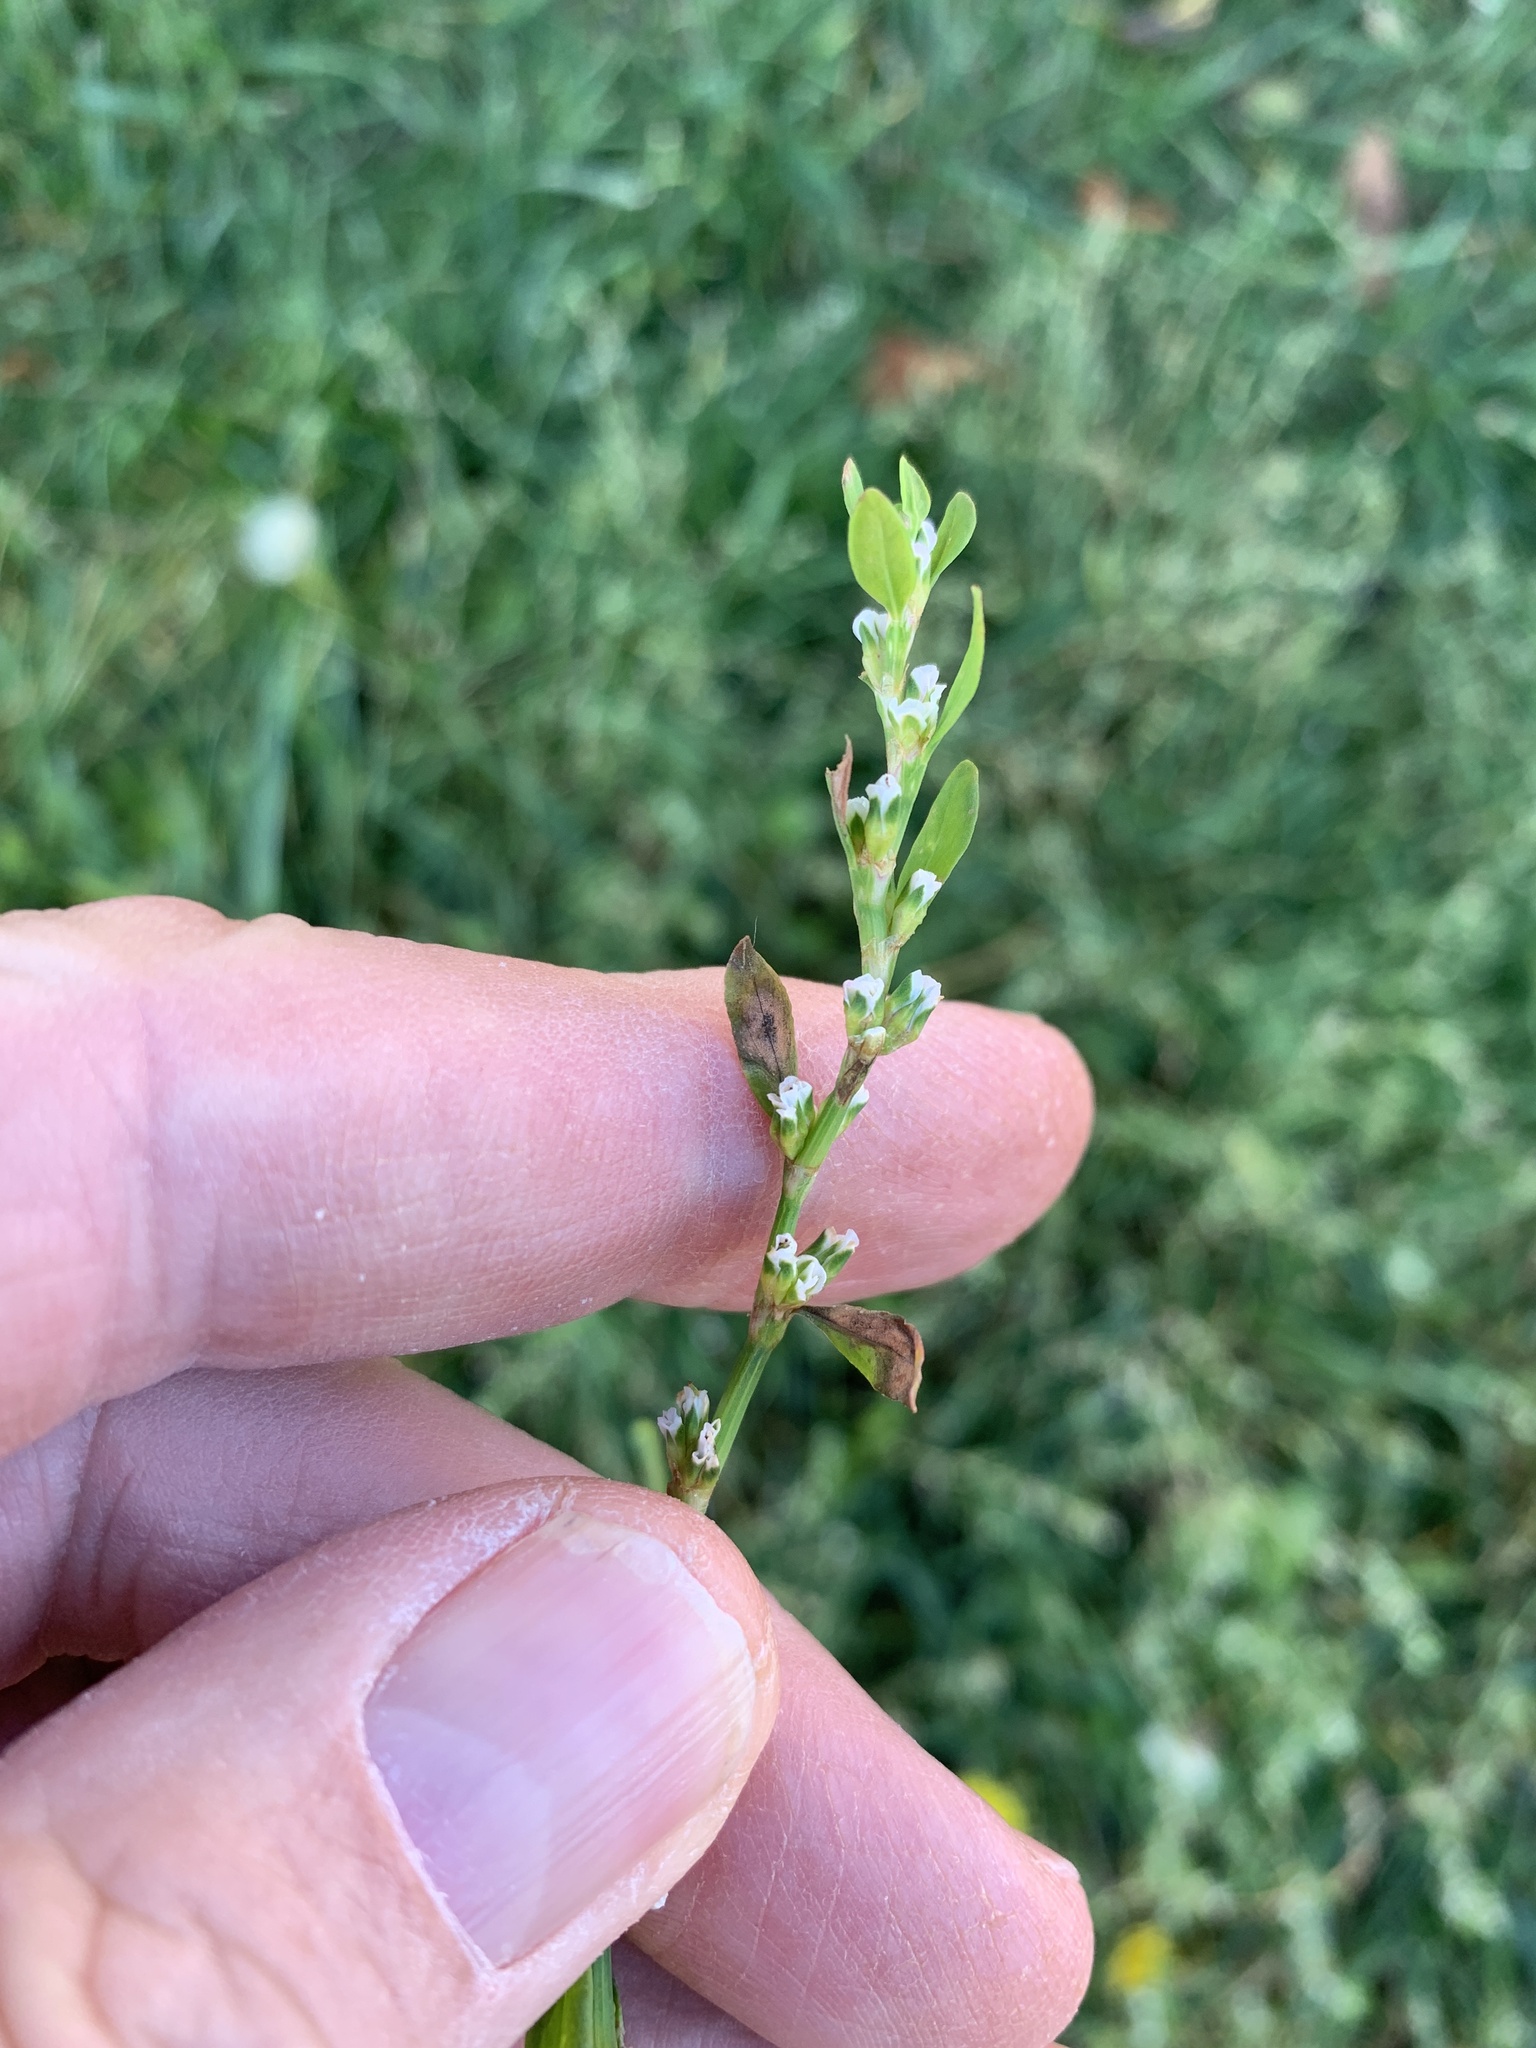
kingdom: Plantae
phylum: Tracheophyta
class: Magnoliopsida
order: Caryophyllales
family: Polygonaceae
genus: Polygonum
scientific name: Polygonum
